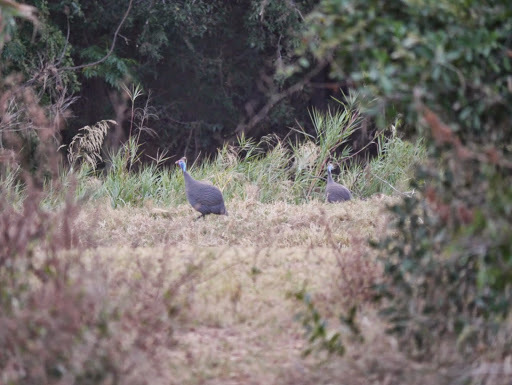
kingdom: Animalia
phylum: Chordata
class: Aves
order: Galliformes
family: Numididae
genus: Numida
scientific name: Numida meleagris
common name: Helmeted guineafowl
